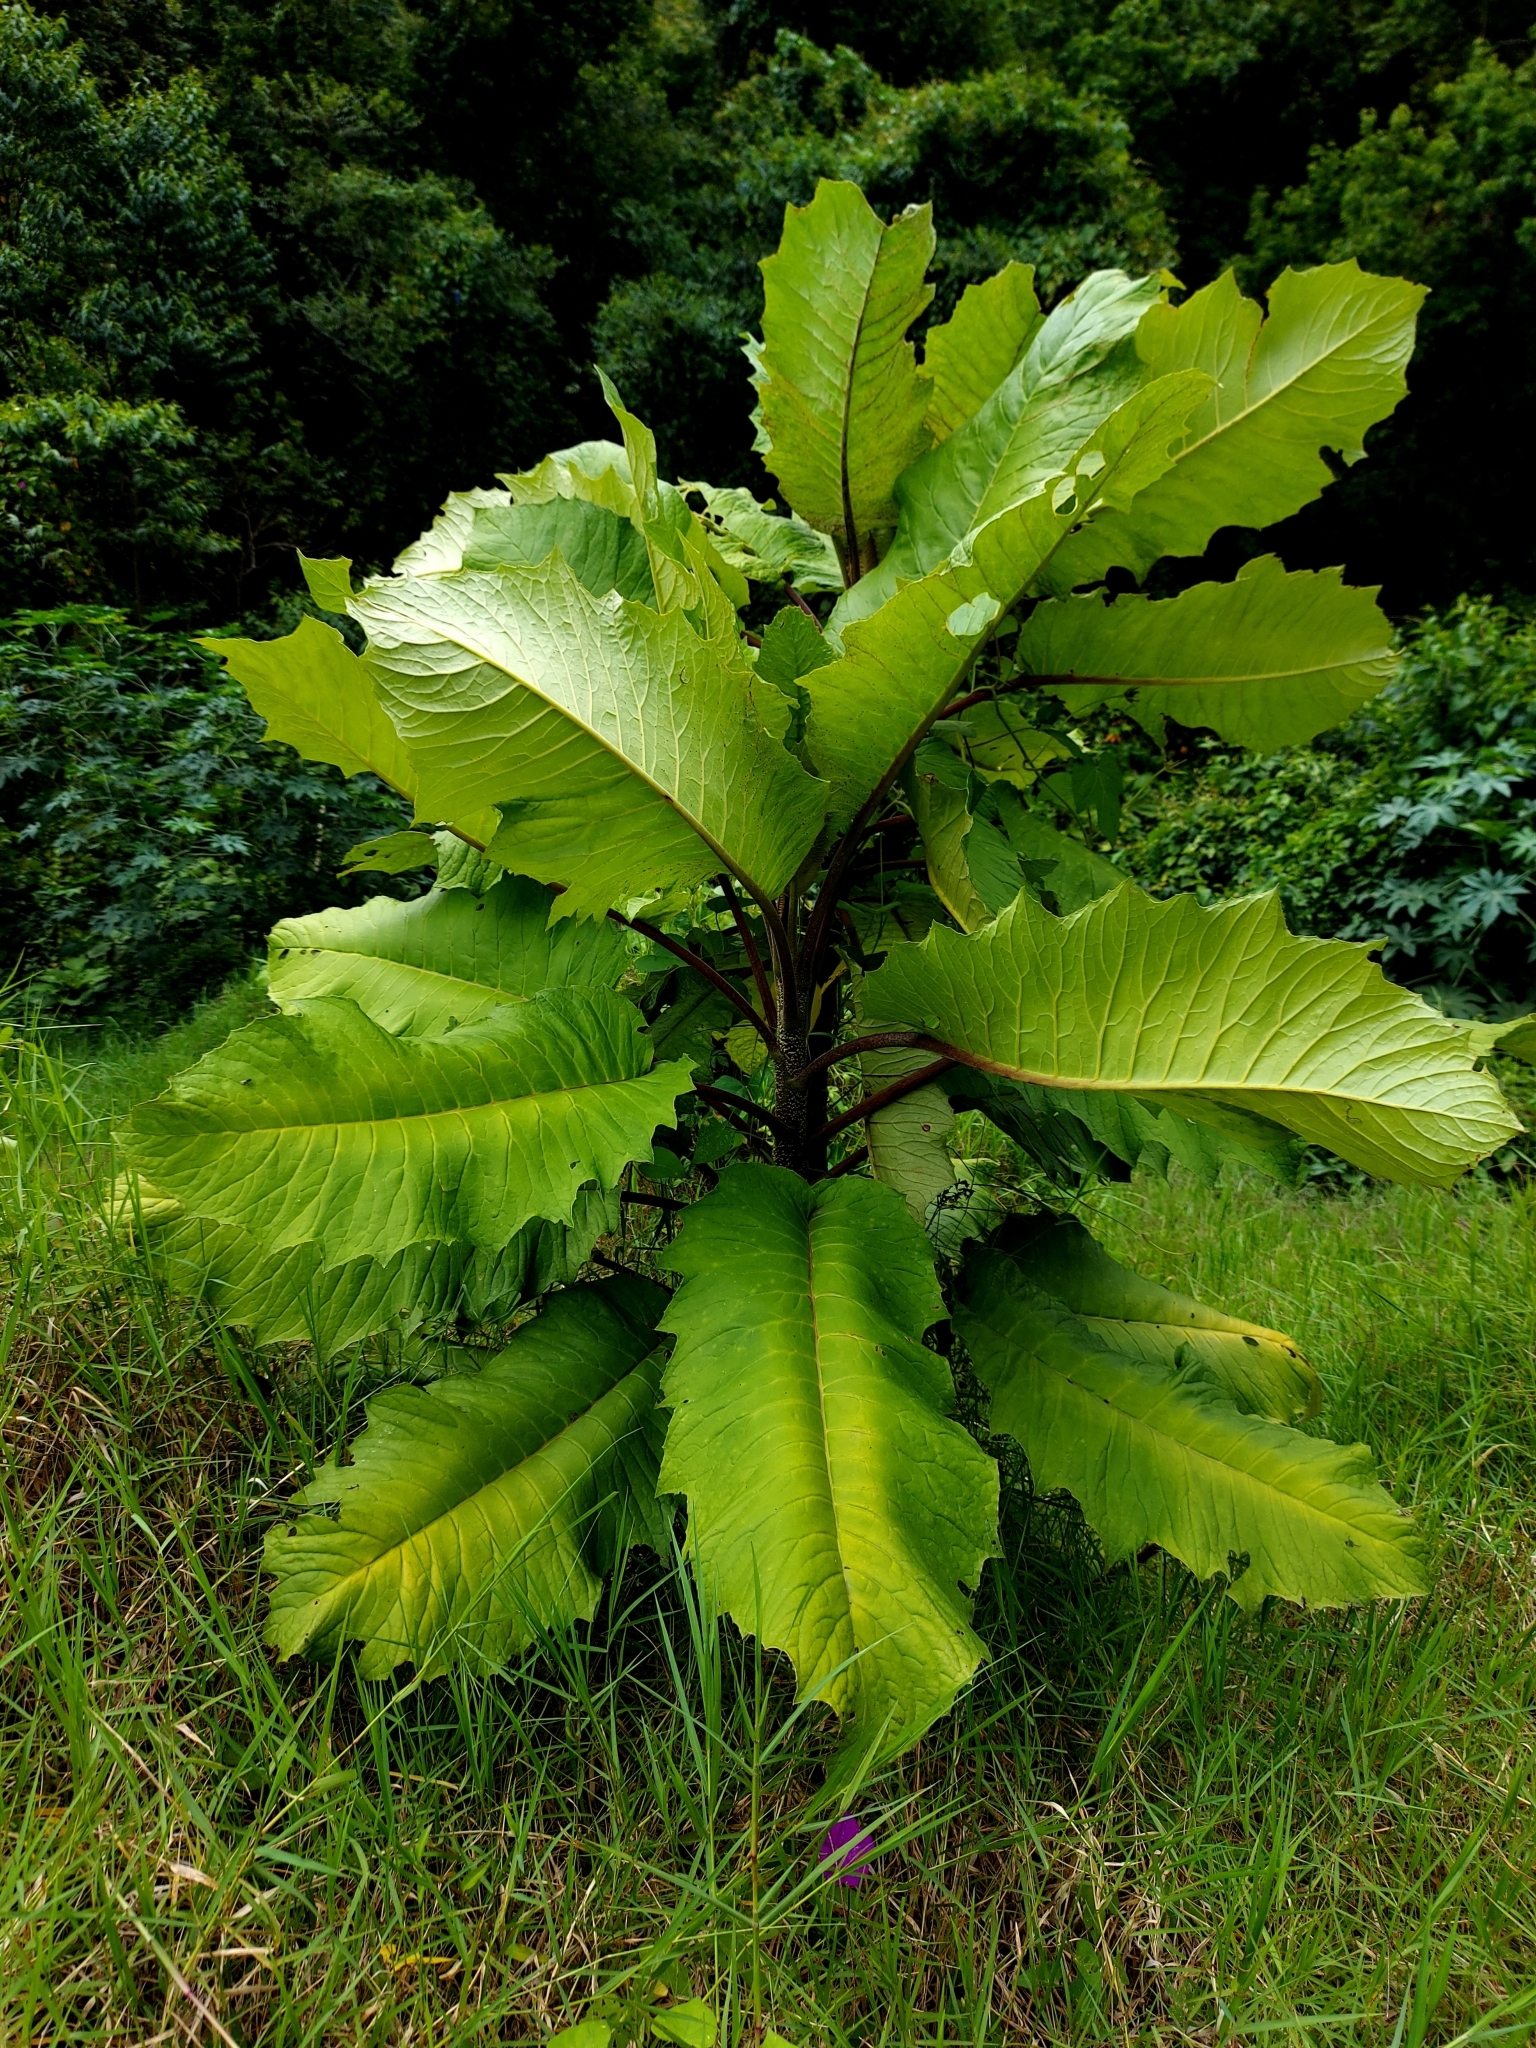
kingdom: Plantae
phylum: Tracheophyta
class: Magnoliopsida
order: Asterales
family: Asteraceae
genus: Telanthophora
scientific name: Telanthophora grandifolia
